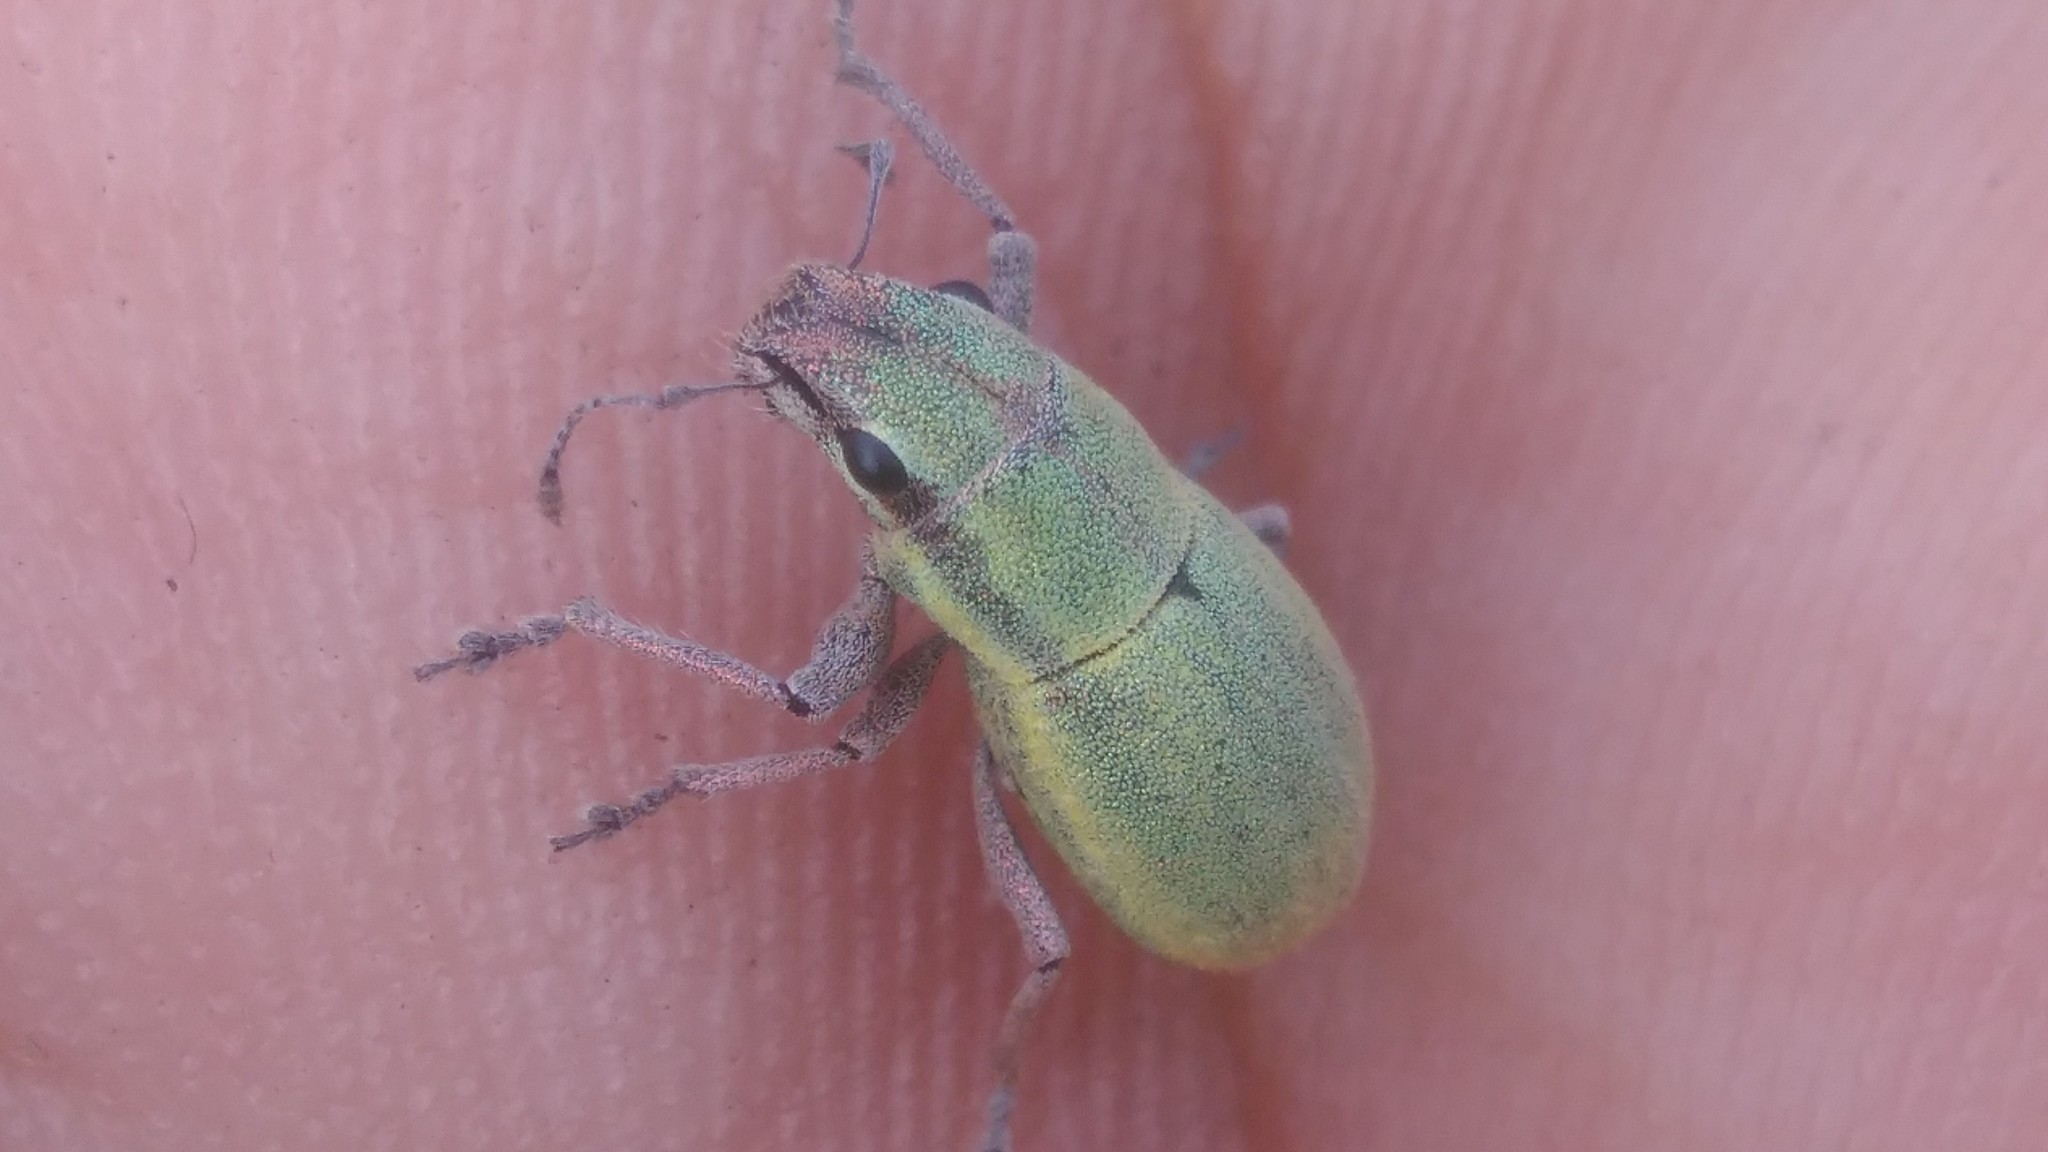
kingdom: Animalia
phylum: Arthropoda
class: Insecta
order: Coleoptera
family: Curculionidae
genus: Pantomorus
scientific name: Pantomorus viridisquamosus
